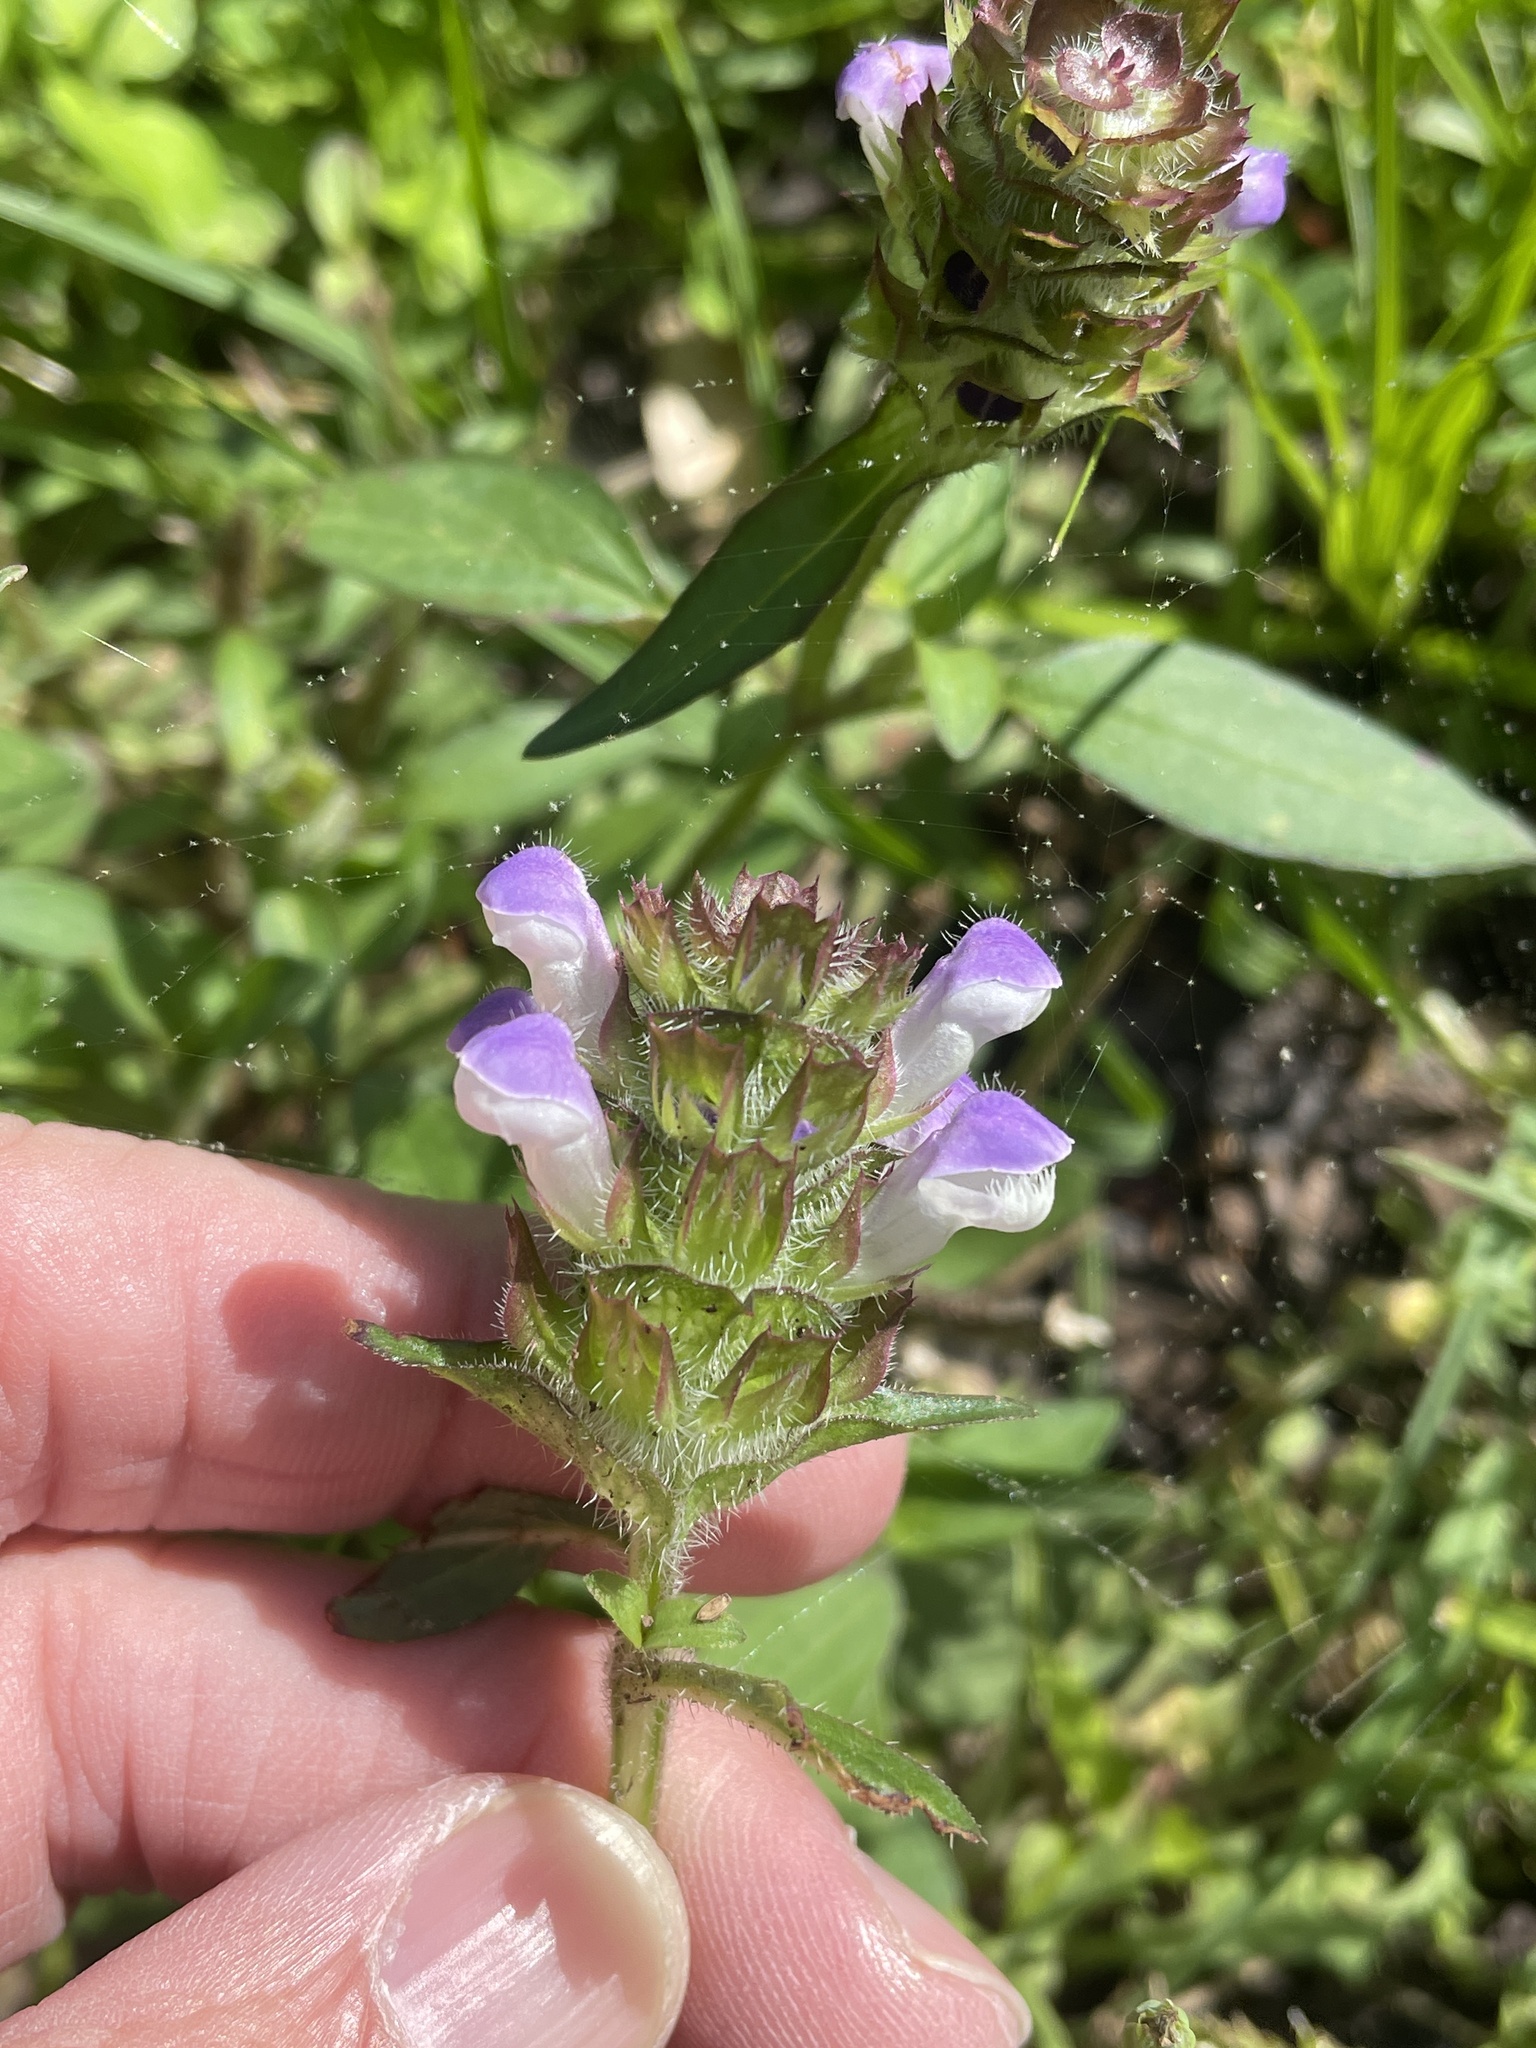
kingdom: Plantae
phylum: Tracheophyta
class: Magnoliopsida
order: Lamiales
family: Lamiaceae
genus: Prunella
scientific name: Prunella vulgaris
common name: Heal-all
